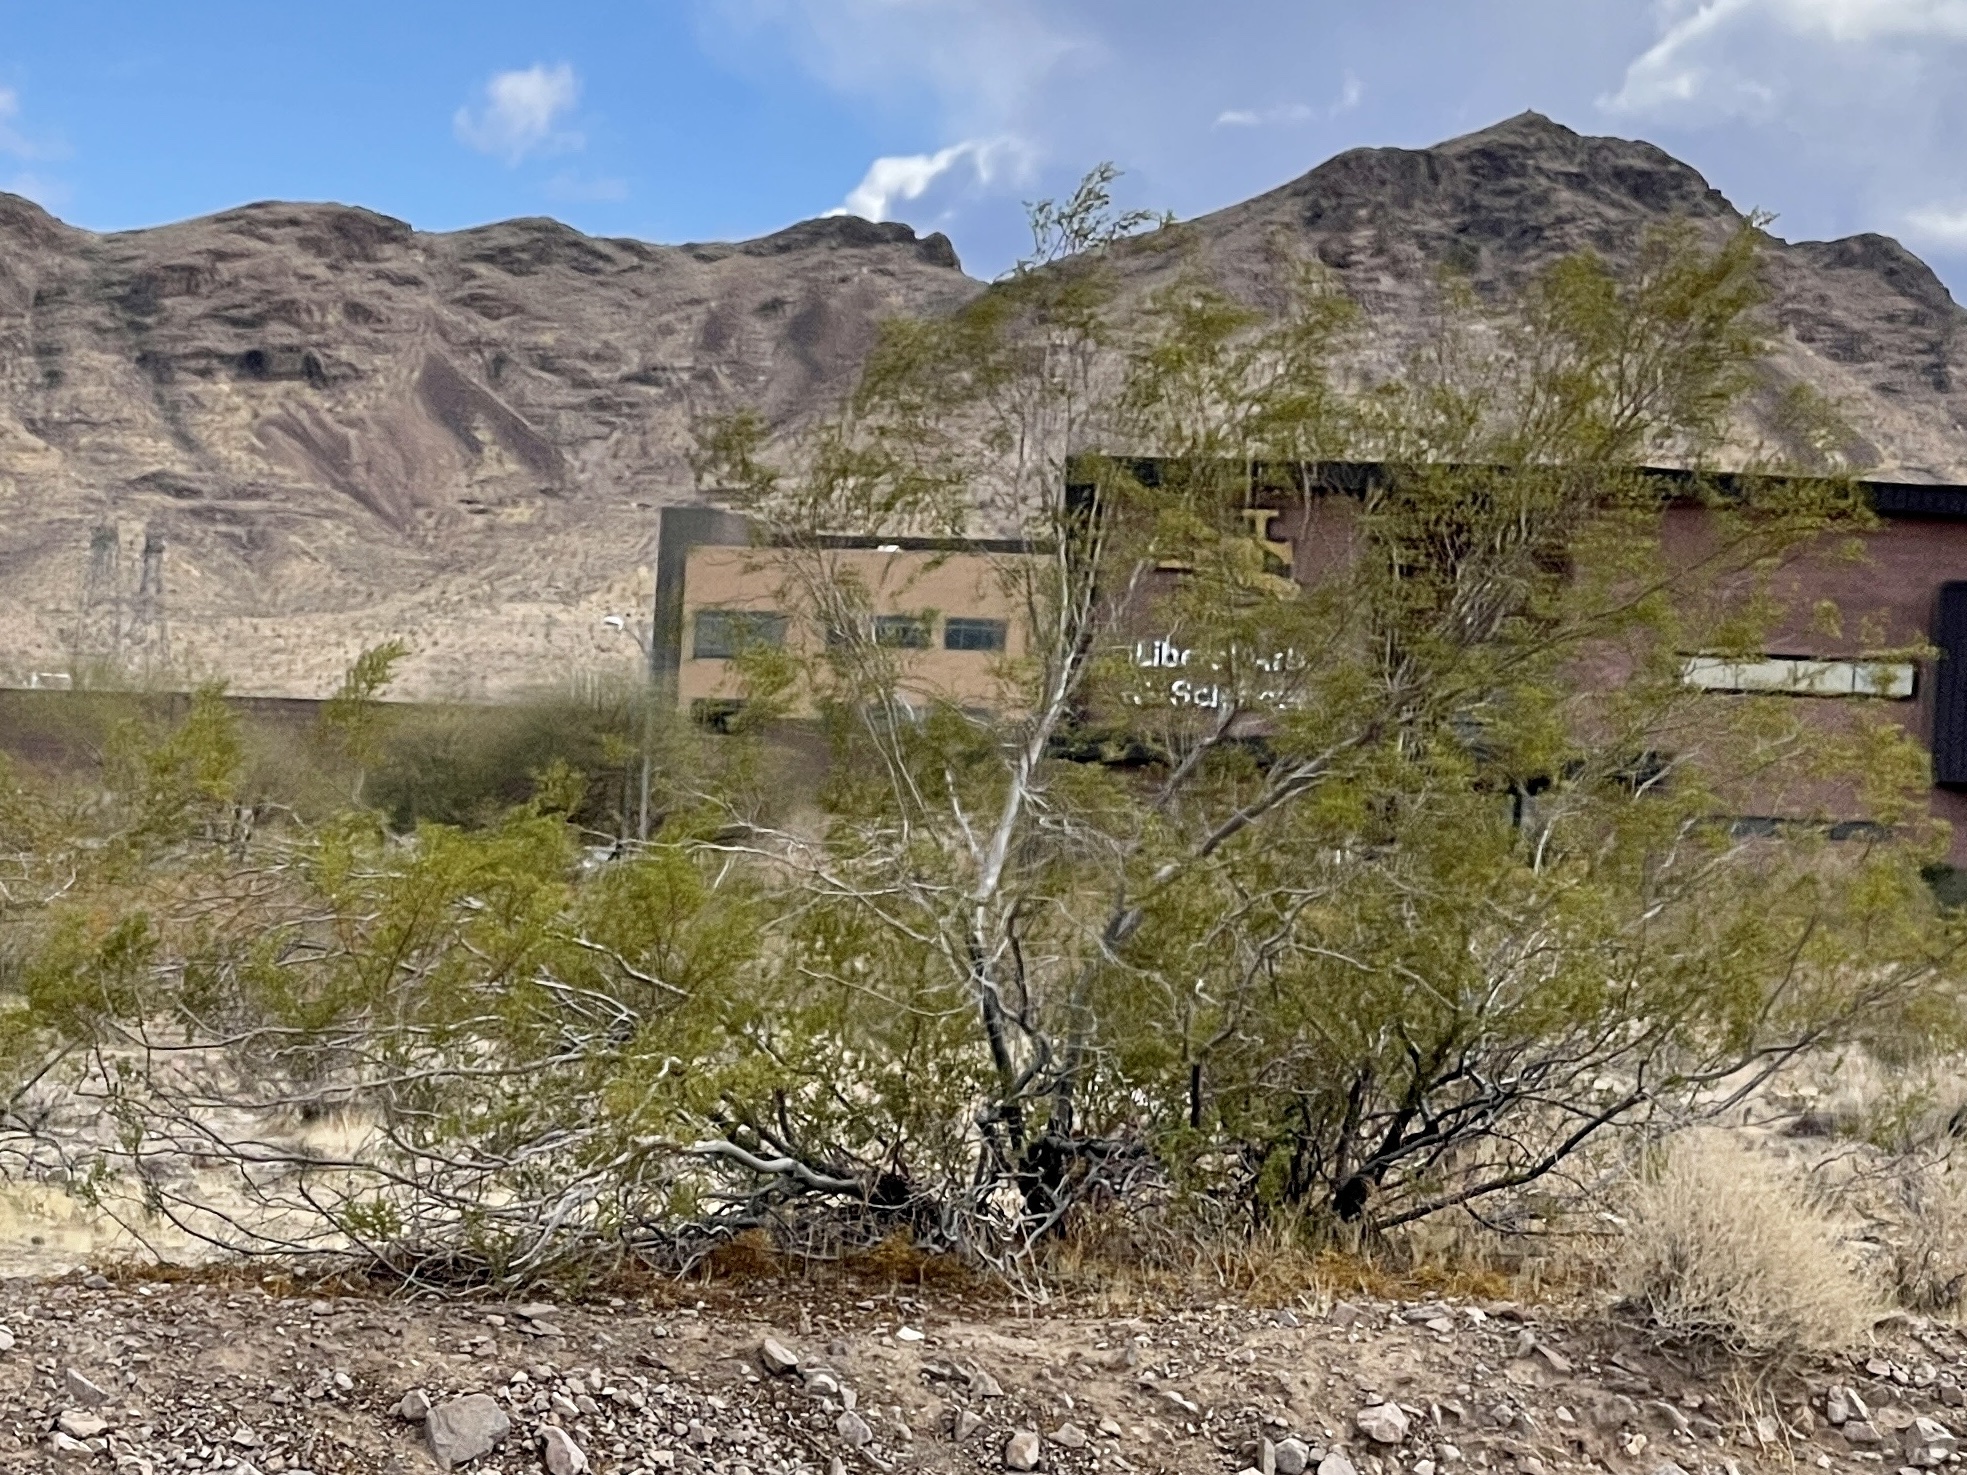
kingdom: Plantae
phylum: Tracheophyta
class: Magnoliopsida
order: Zygophyllales
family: Zygophyllaceae
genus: Larrea
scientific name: Larrea tridentata
